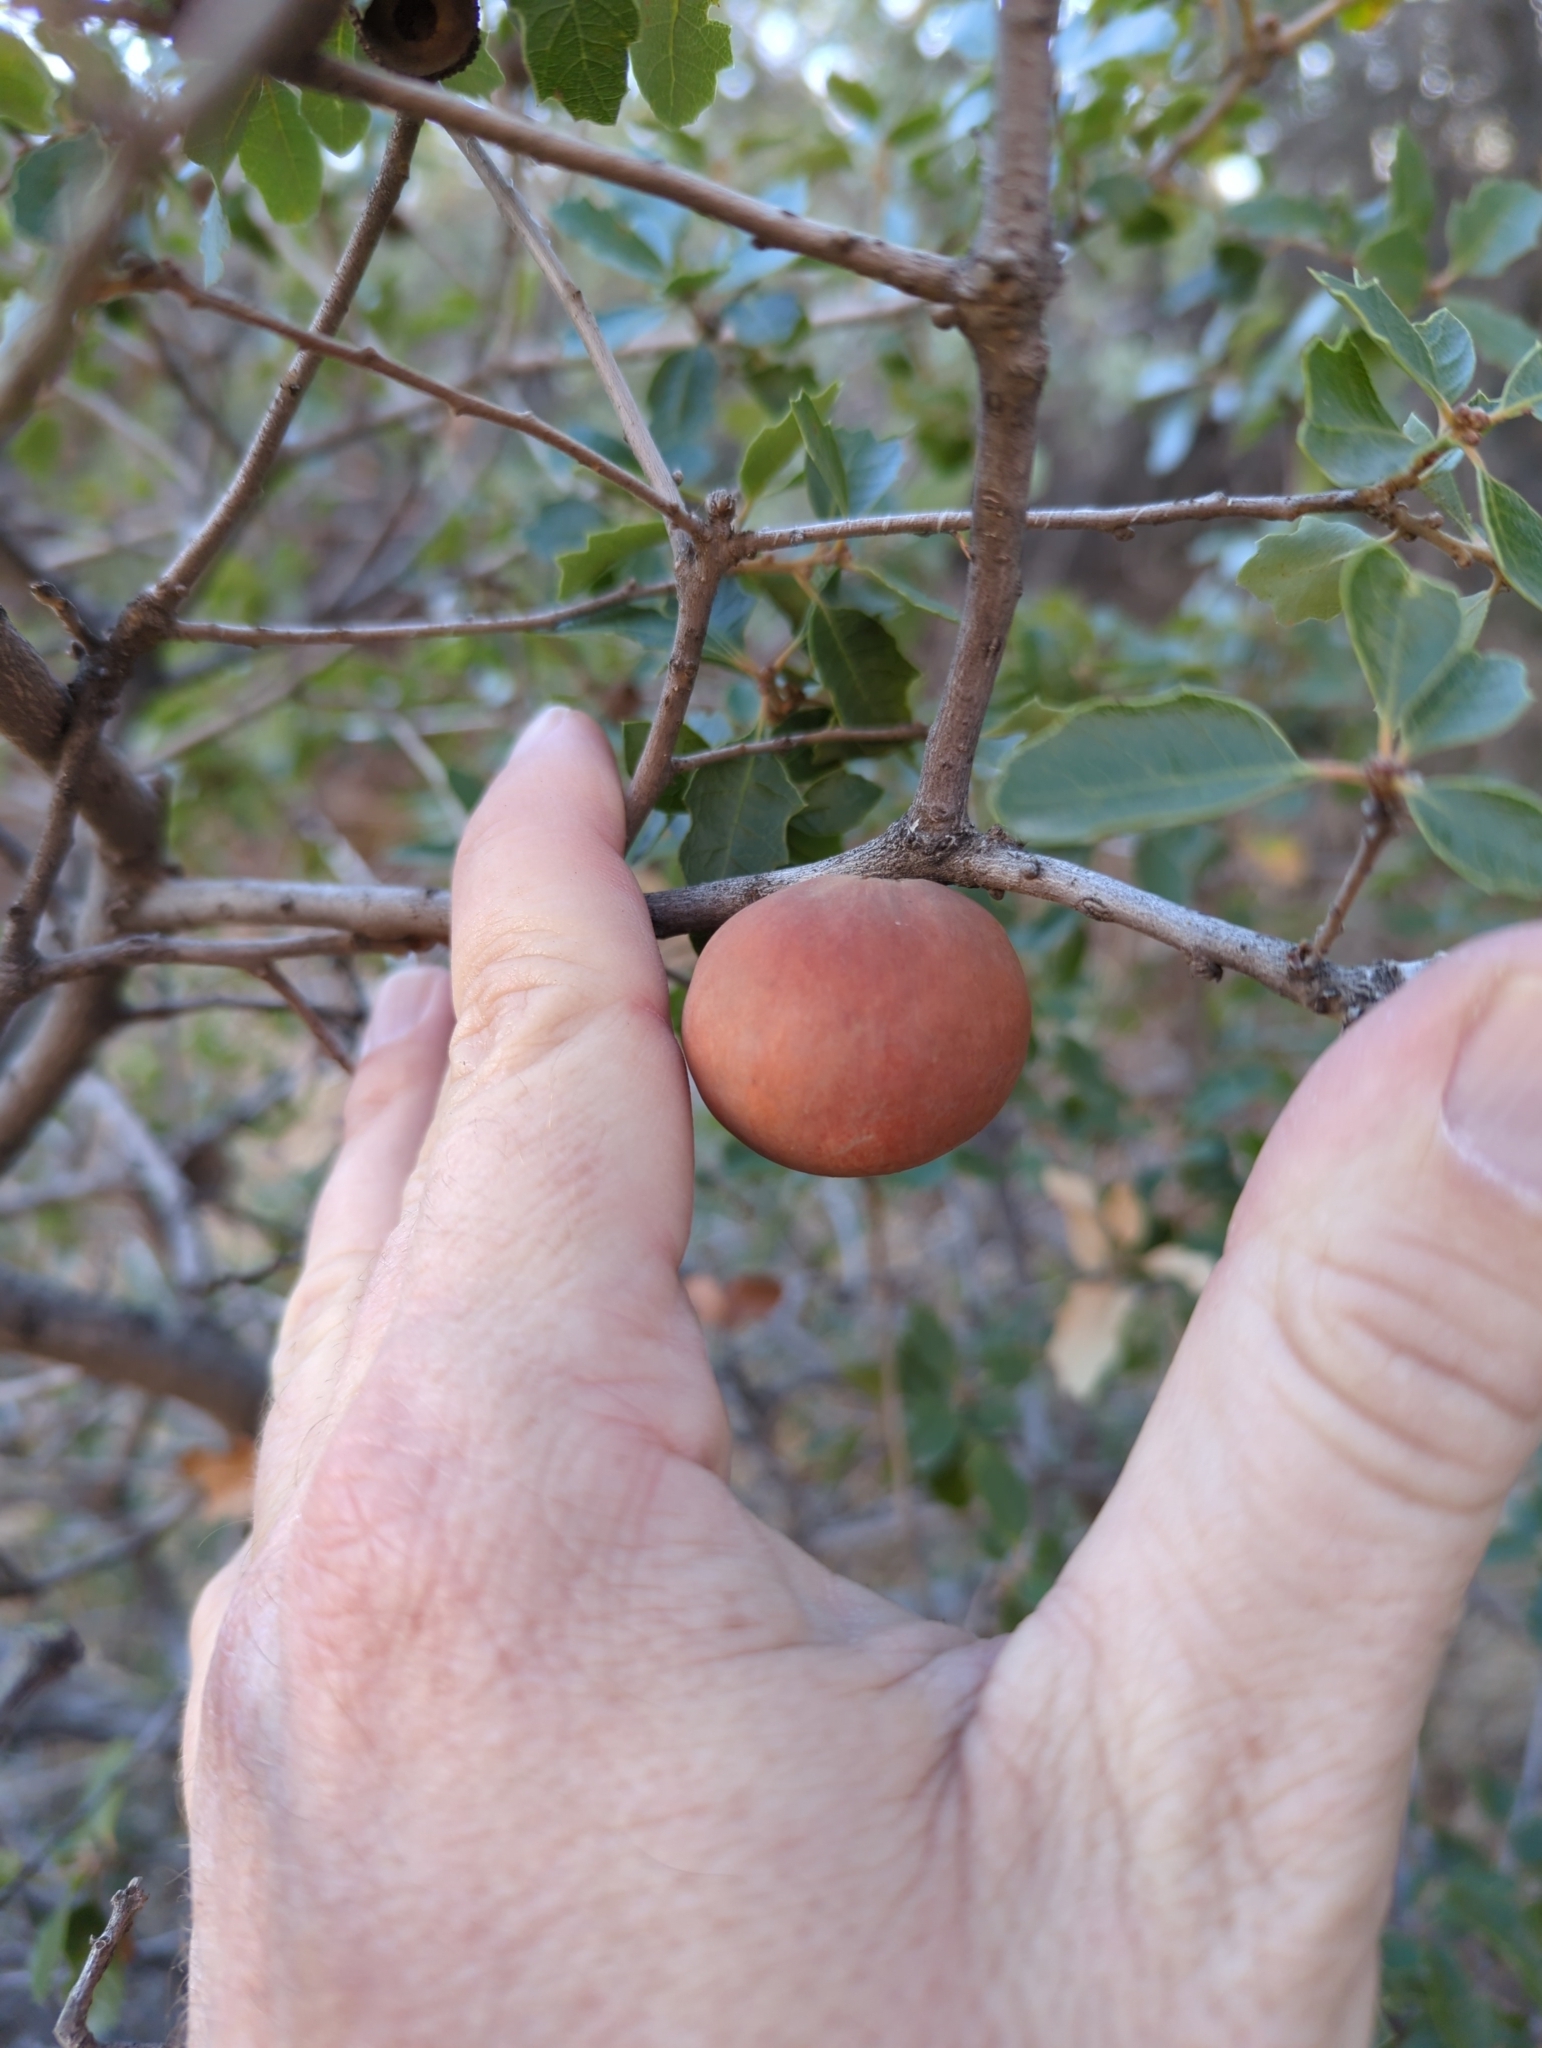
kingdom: Animalia
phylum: Arthropoda
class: Insecta
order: Hymenoptera
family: Cynipidae
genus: Andricus
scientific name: Andricus quercuscalifornicus
